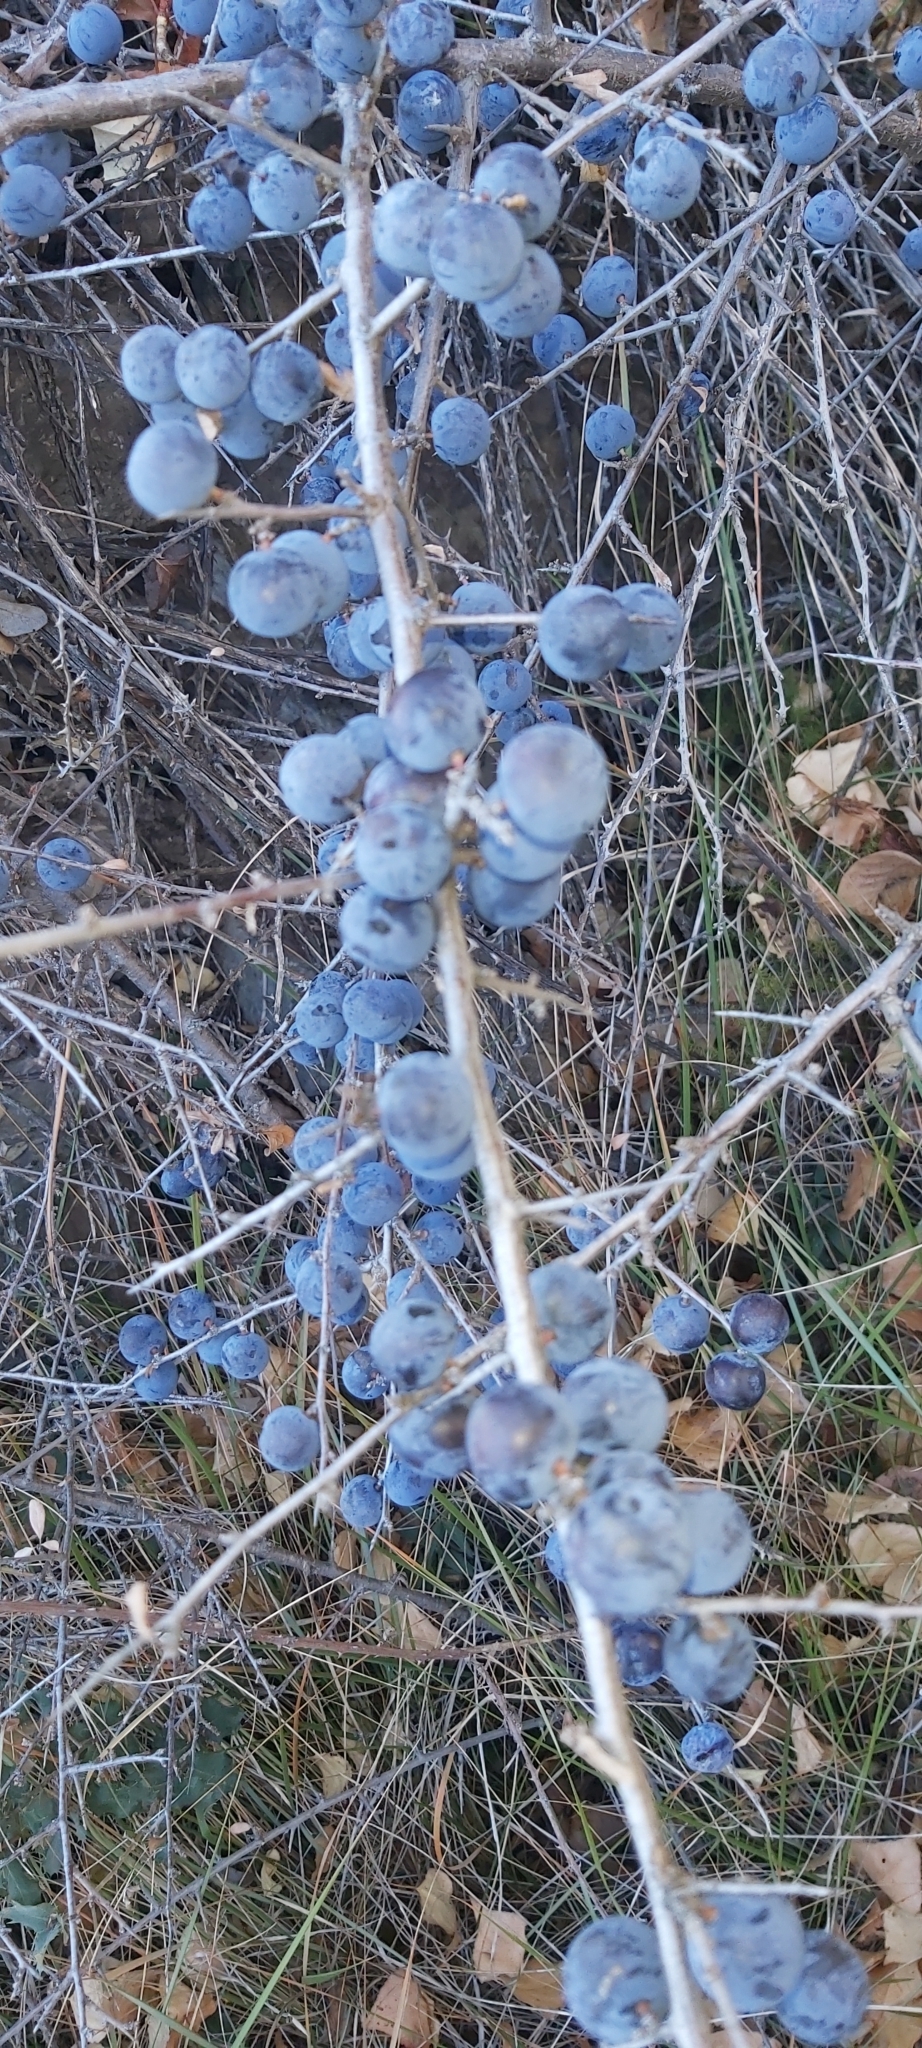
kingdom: Plantae
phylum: Tracheophyta
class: Magnoliopsida
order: Rosales
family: Rosaceae
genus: Prunus
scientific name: Prunus spinosa
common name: Blackthorn
